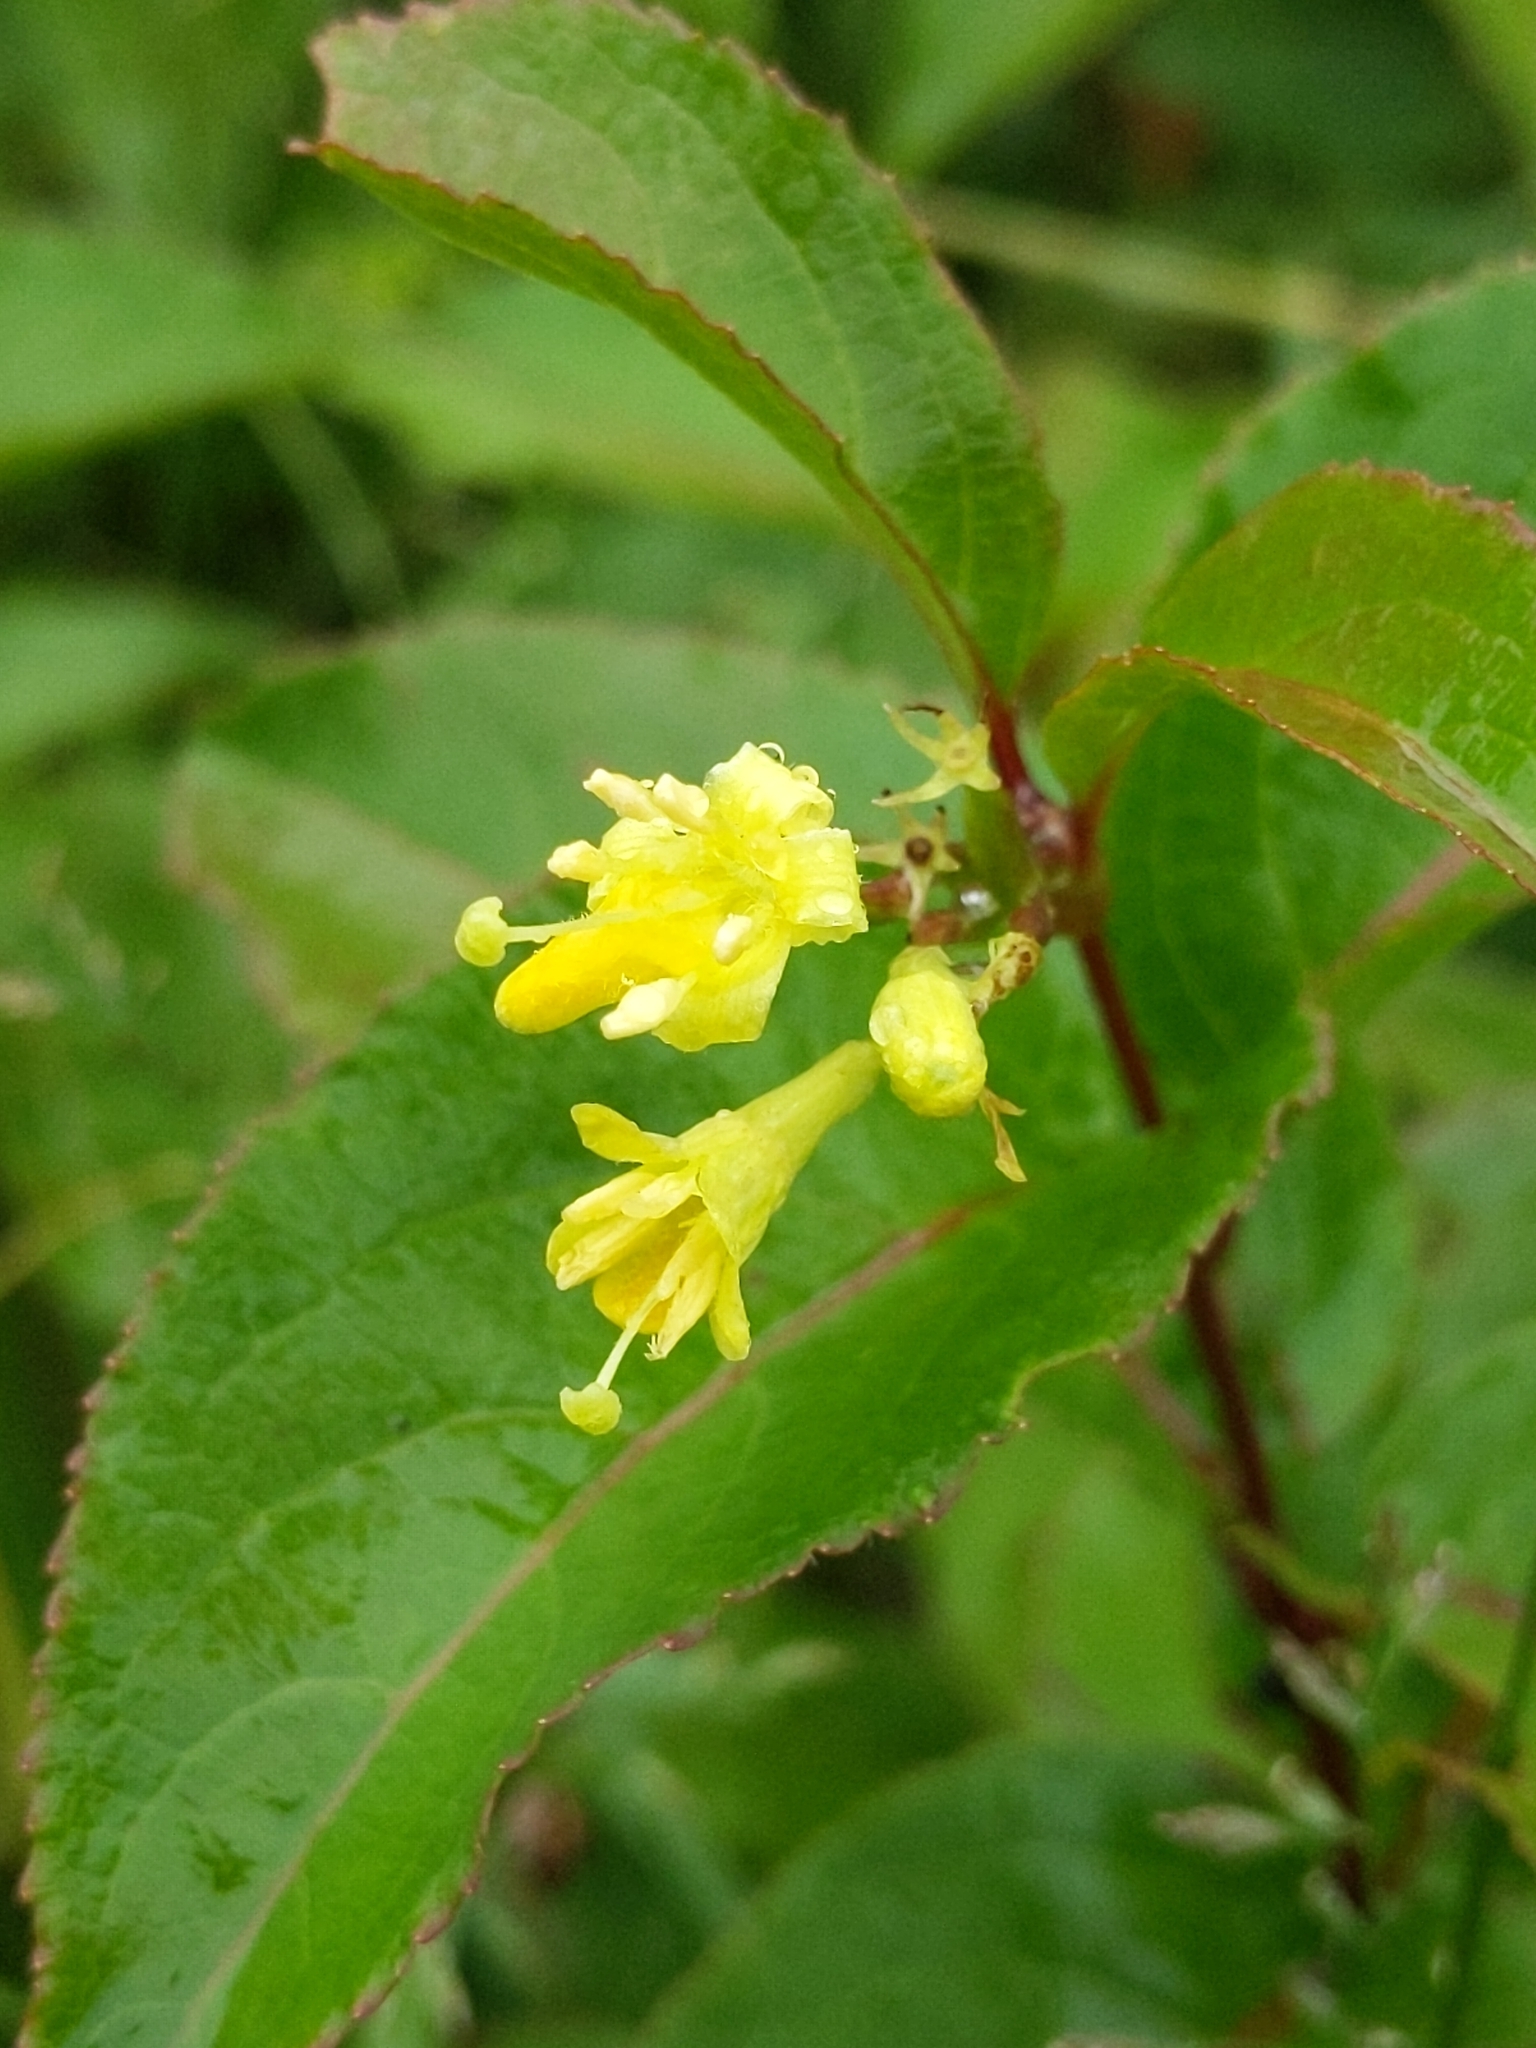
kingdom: Plantae
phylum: Tracheophyta
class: Magnoliopsida
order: Dipsacales
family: Caprifoliaceae
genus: Diervilla
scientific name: Diervilla lonicera
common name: Bush-honeysuckle
